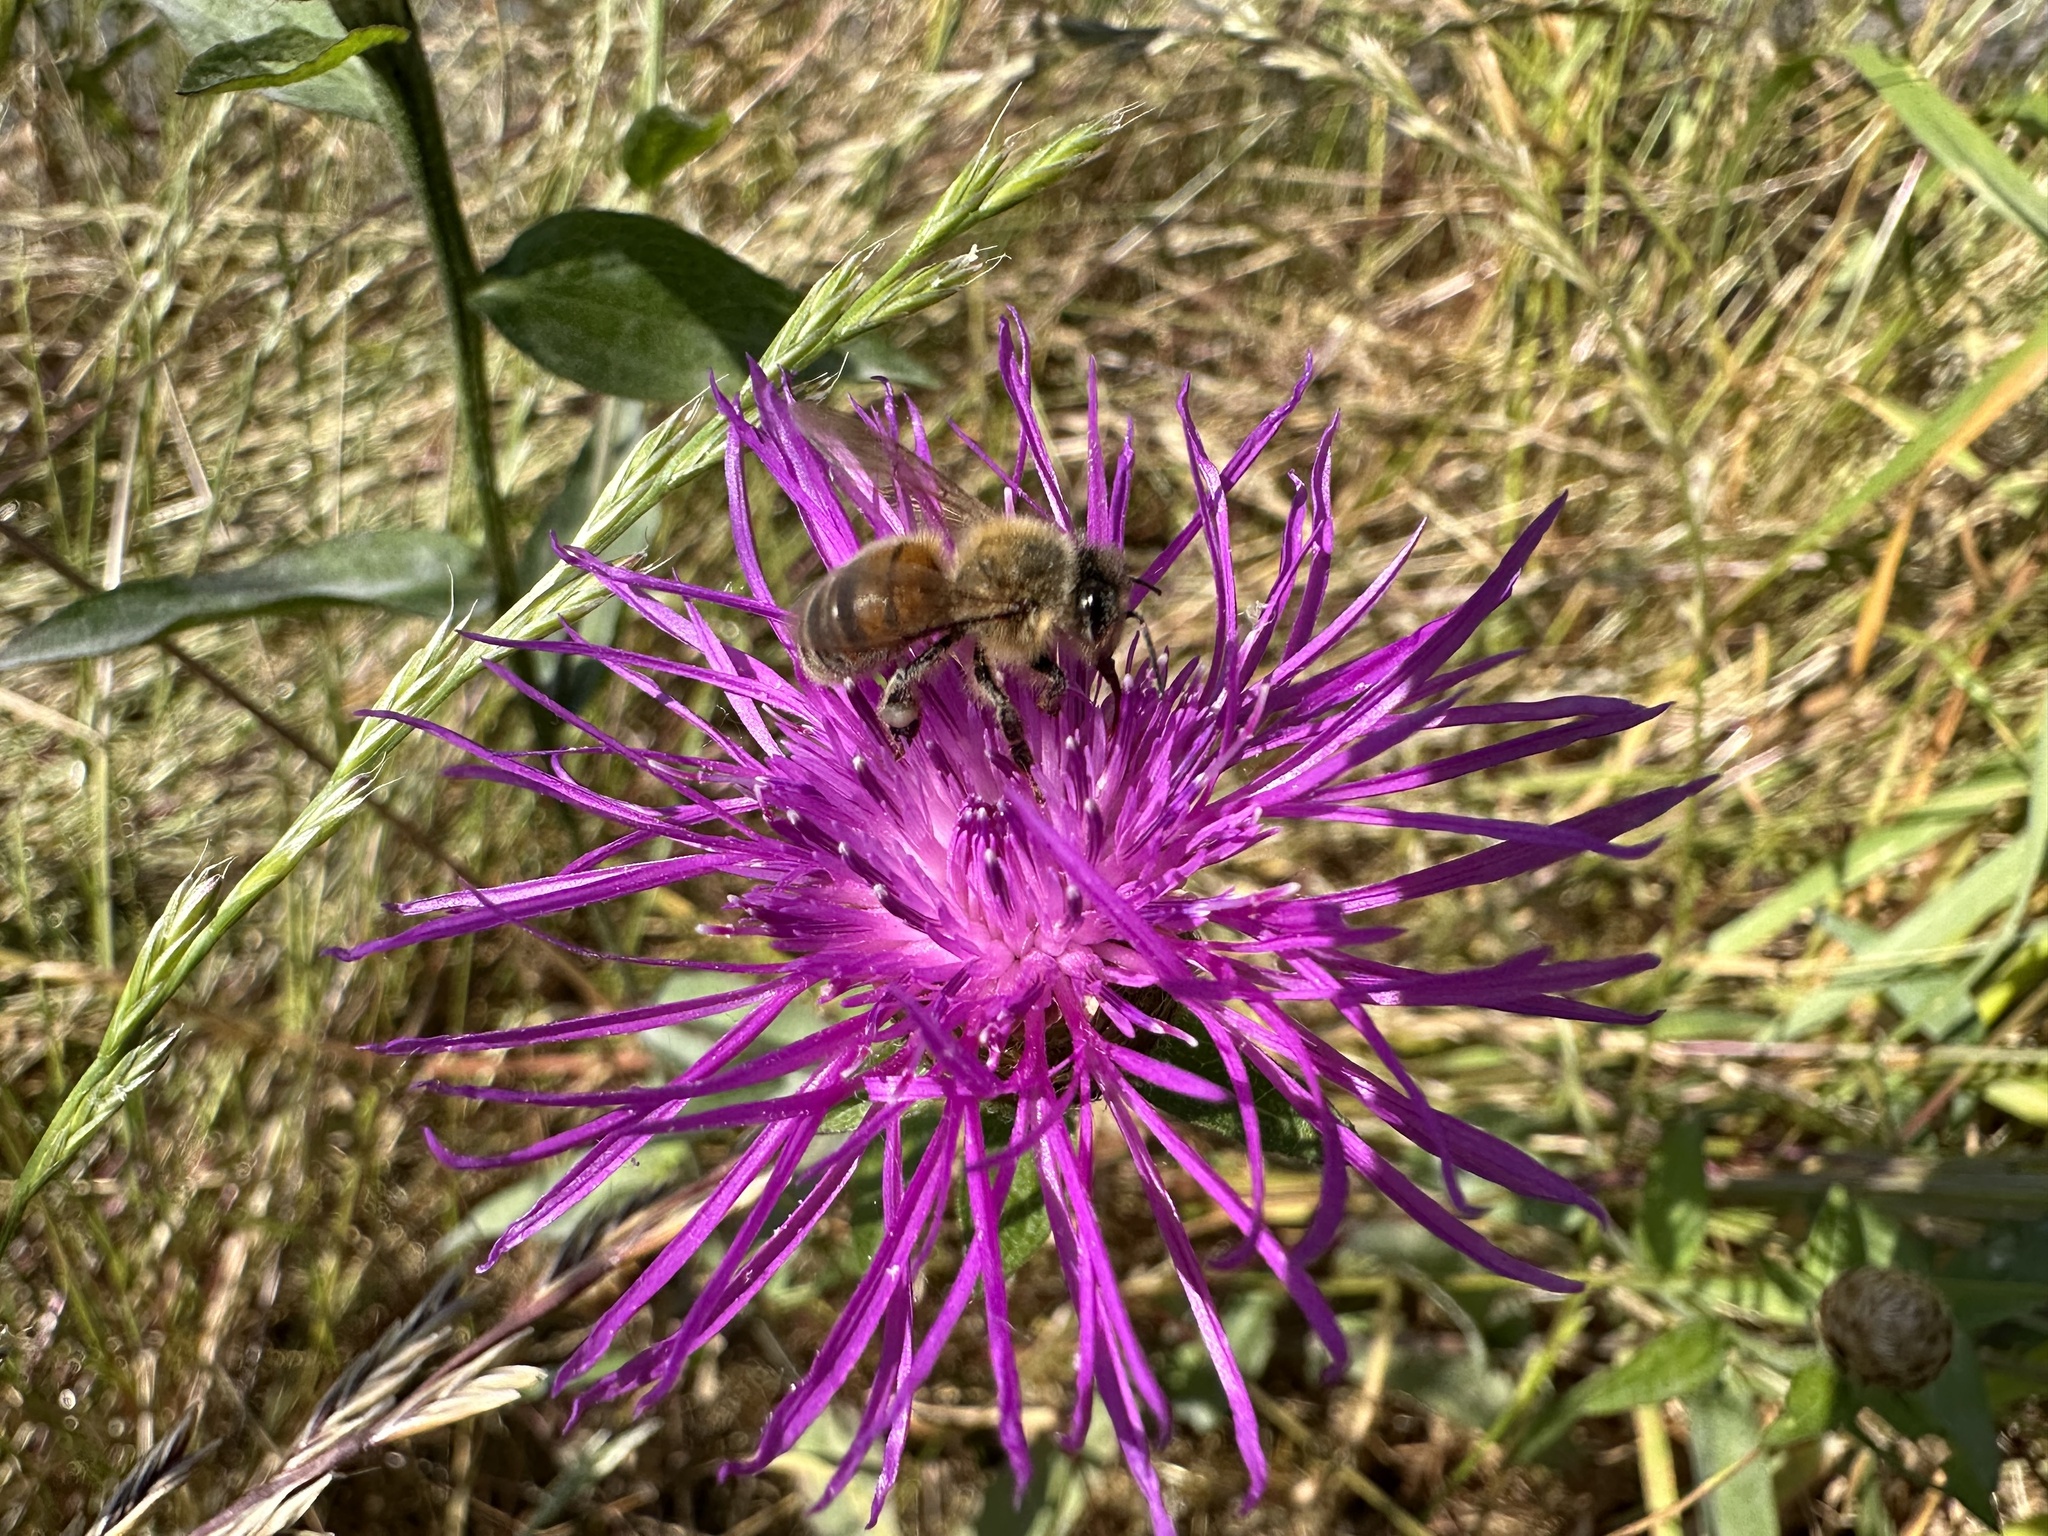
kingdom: Animalia
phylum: Arthropoda
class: Insecta
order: Hymenoptera
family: Apidae
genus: Apis
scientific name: Apis mellifera
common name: Honey bee
